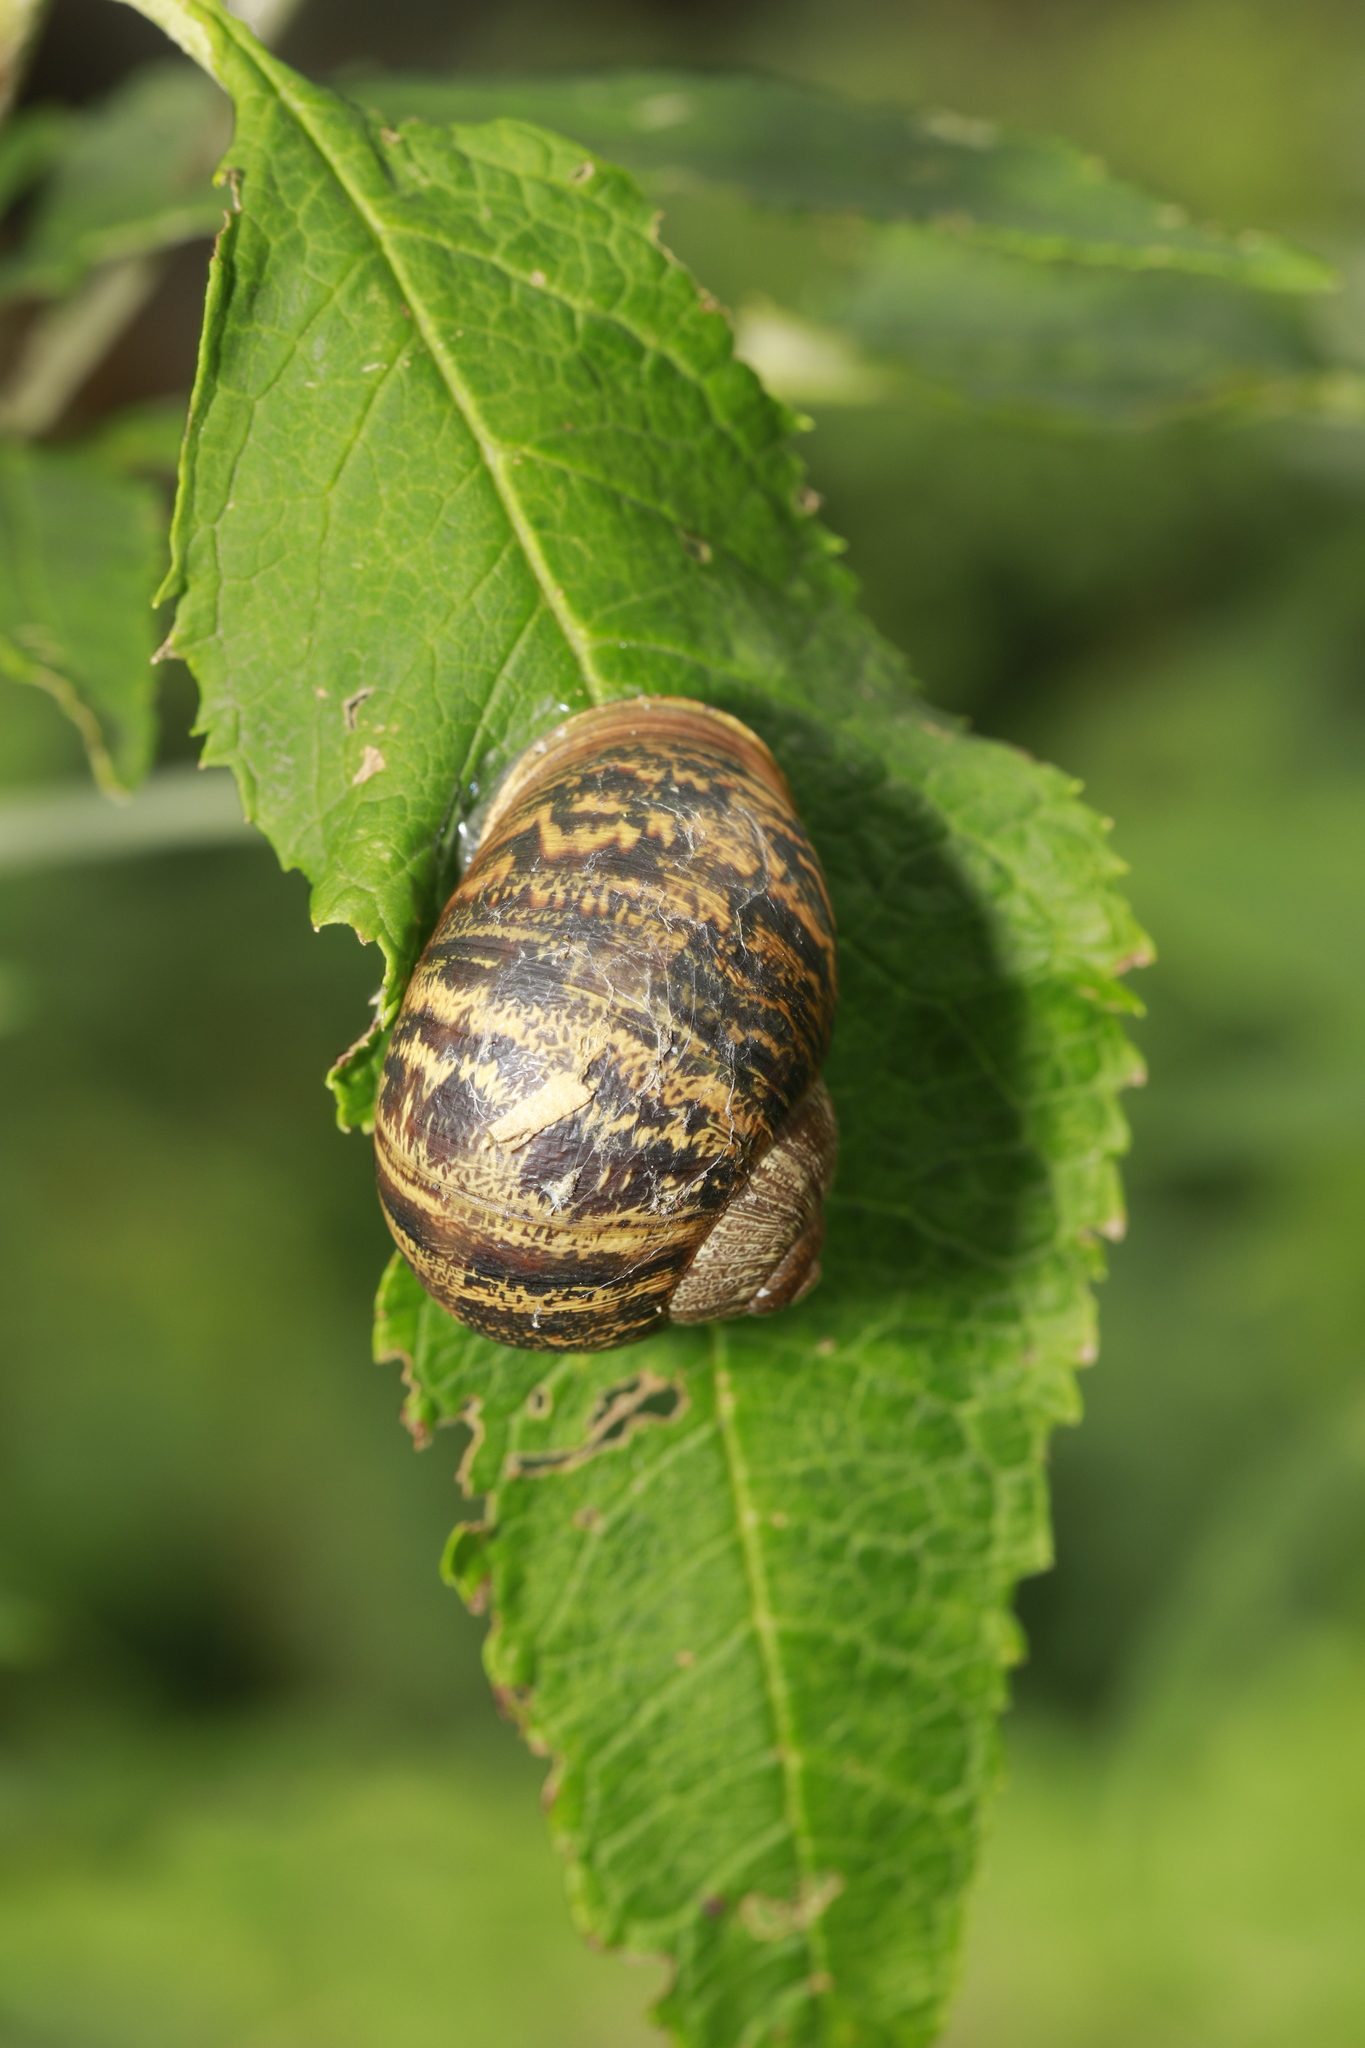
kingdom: Animalia
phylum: Mollusca
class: Gastropoda
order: Stylommatophora
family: Helicidae
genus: Cornu
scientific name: Cornu aspersum
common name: Brown garden snail
